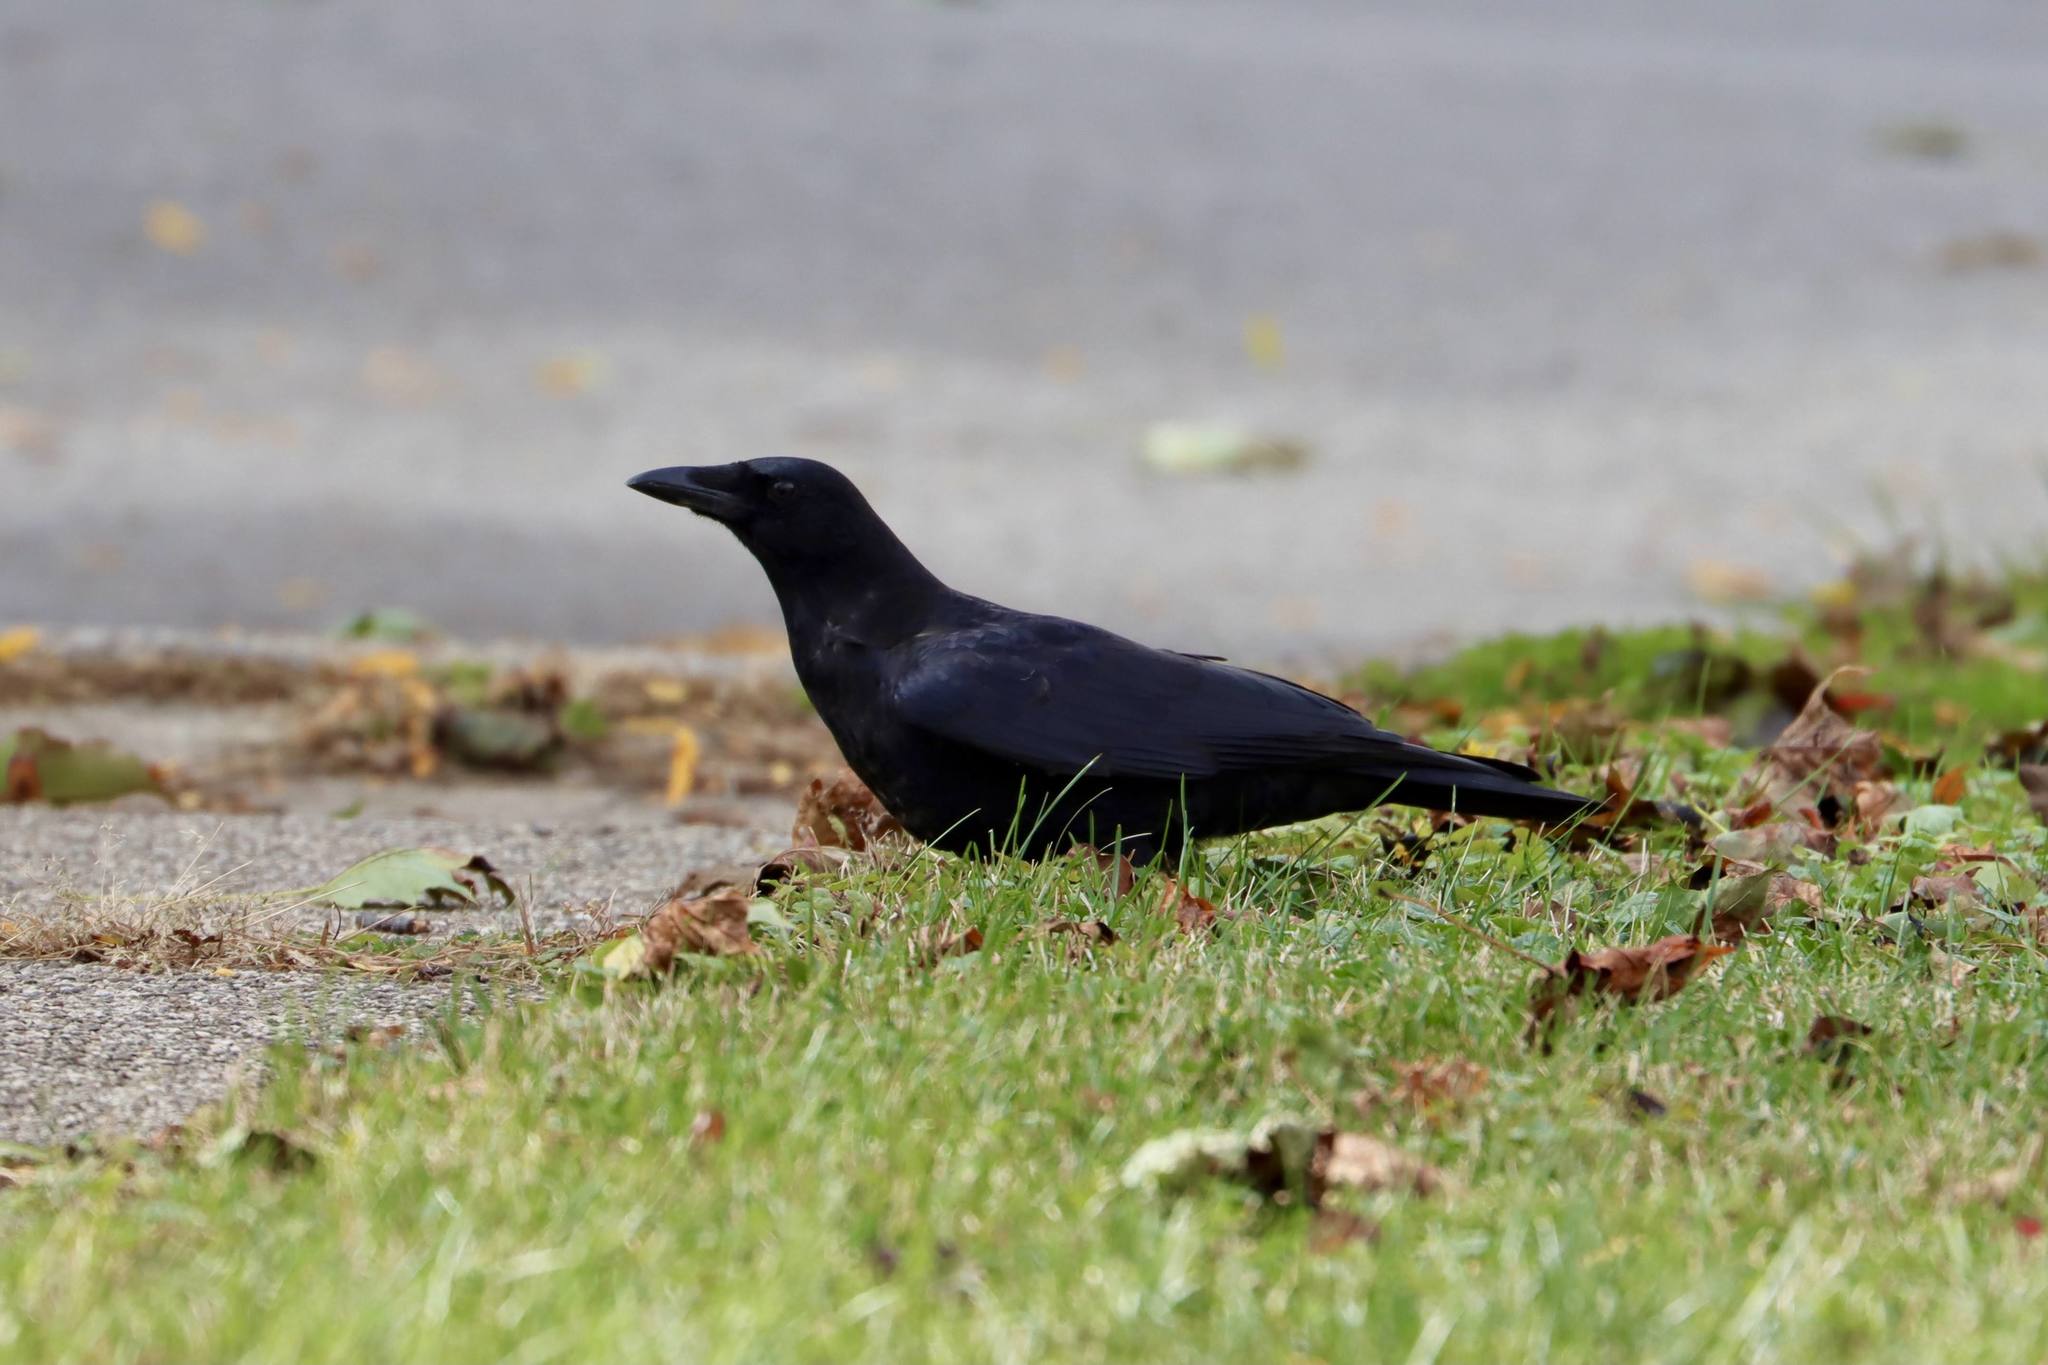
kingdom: Animalia
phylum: Chordata
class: Aves
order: Passeriformes
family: Corvidae
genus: Corvus
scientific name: Corvus brachyrhynchos
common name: American crow
